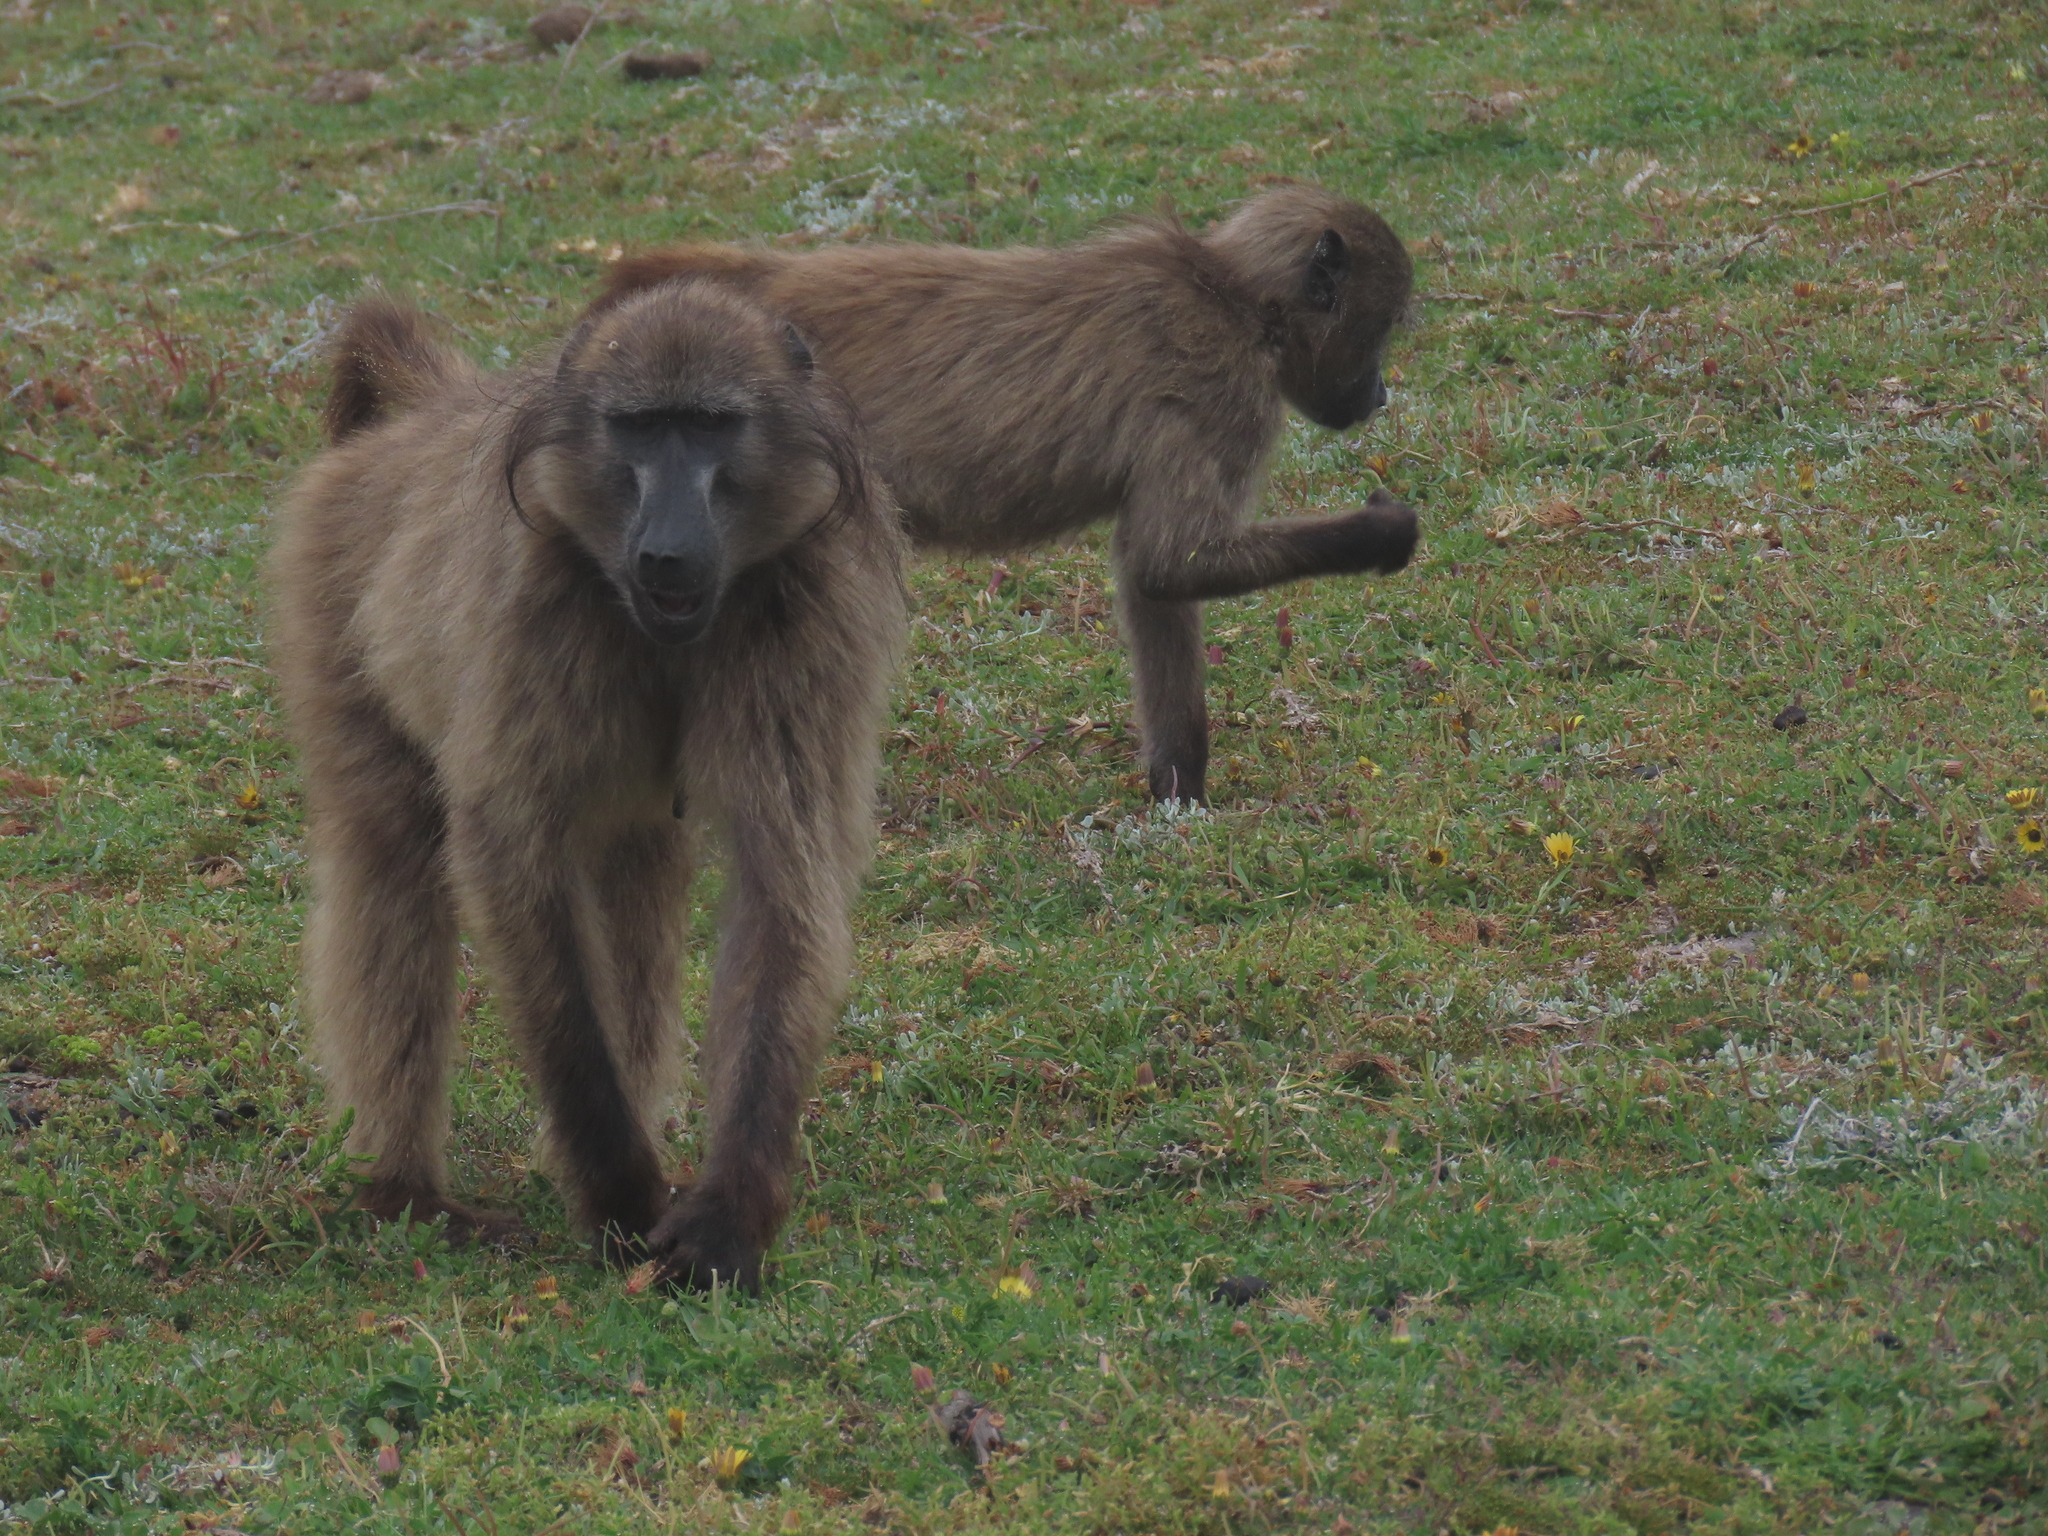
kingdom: Animalia
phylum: Chordata
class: Mammalia
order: Primates
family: Cercopithecidae
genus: Papio
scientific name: Papio ursinus
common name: Chacma baboon
